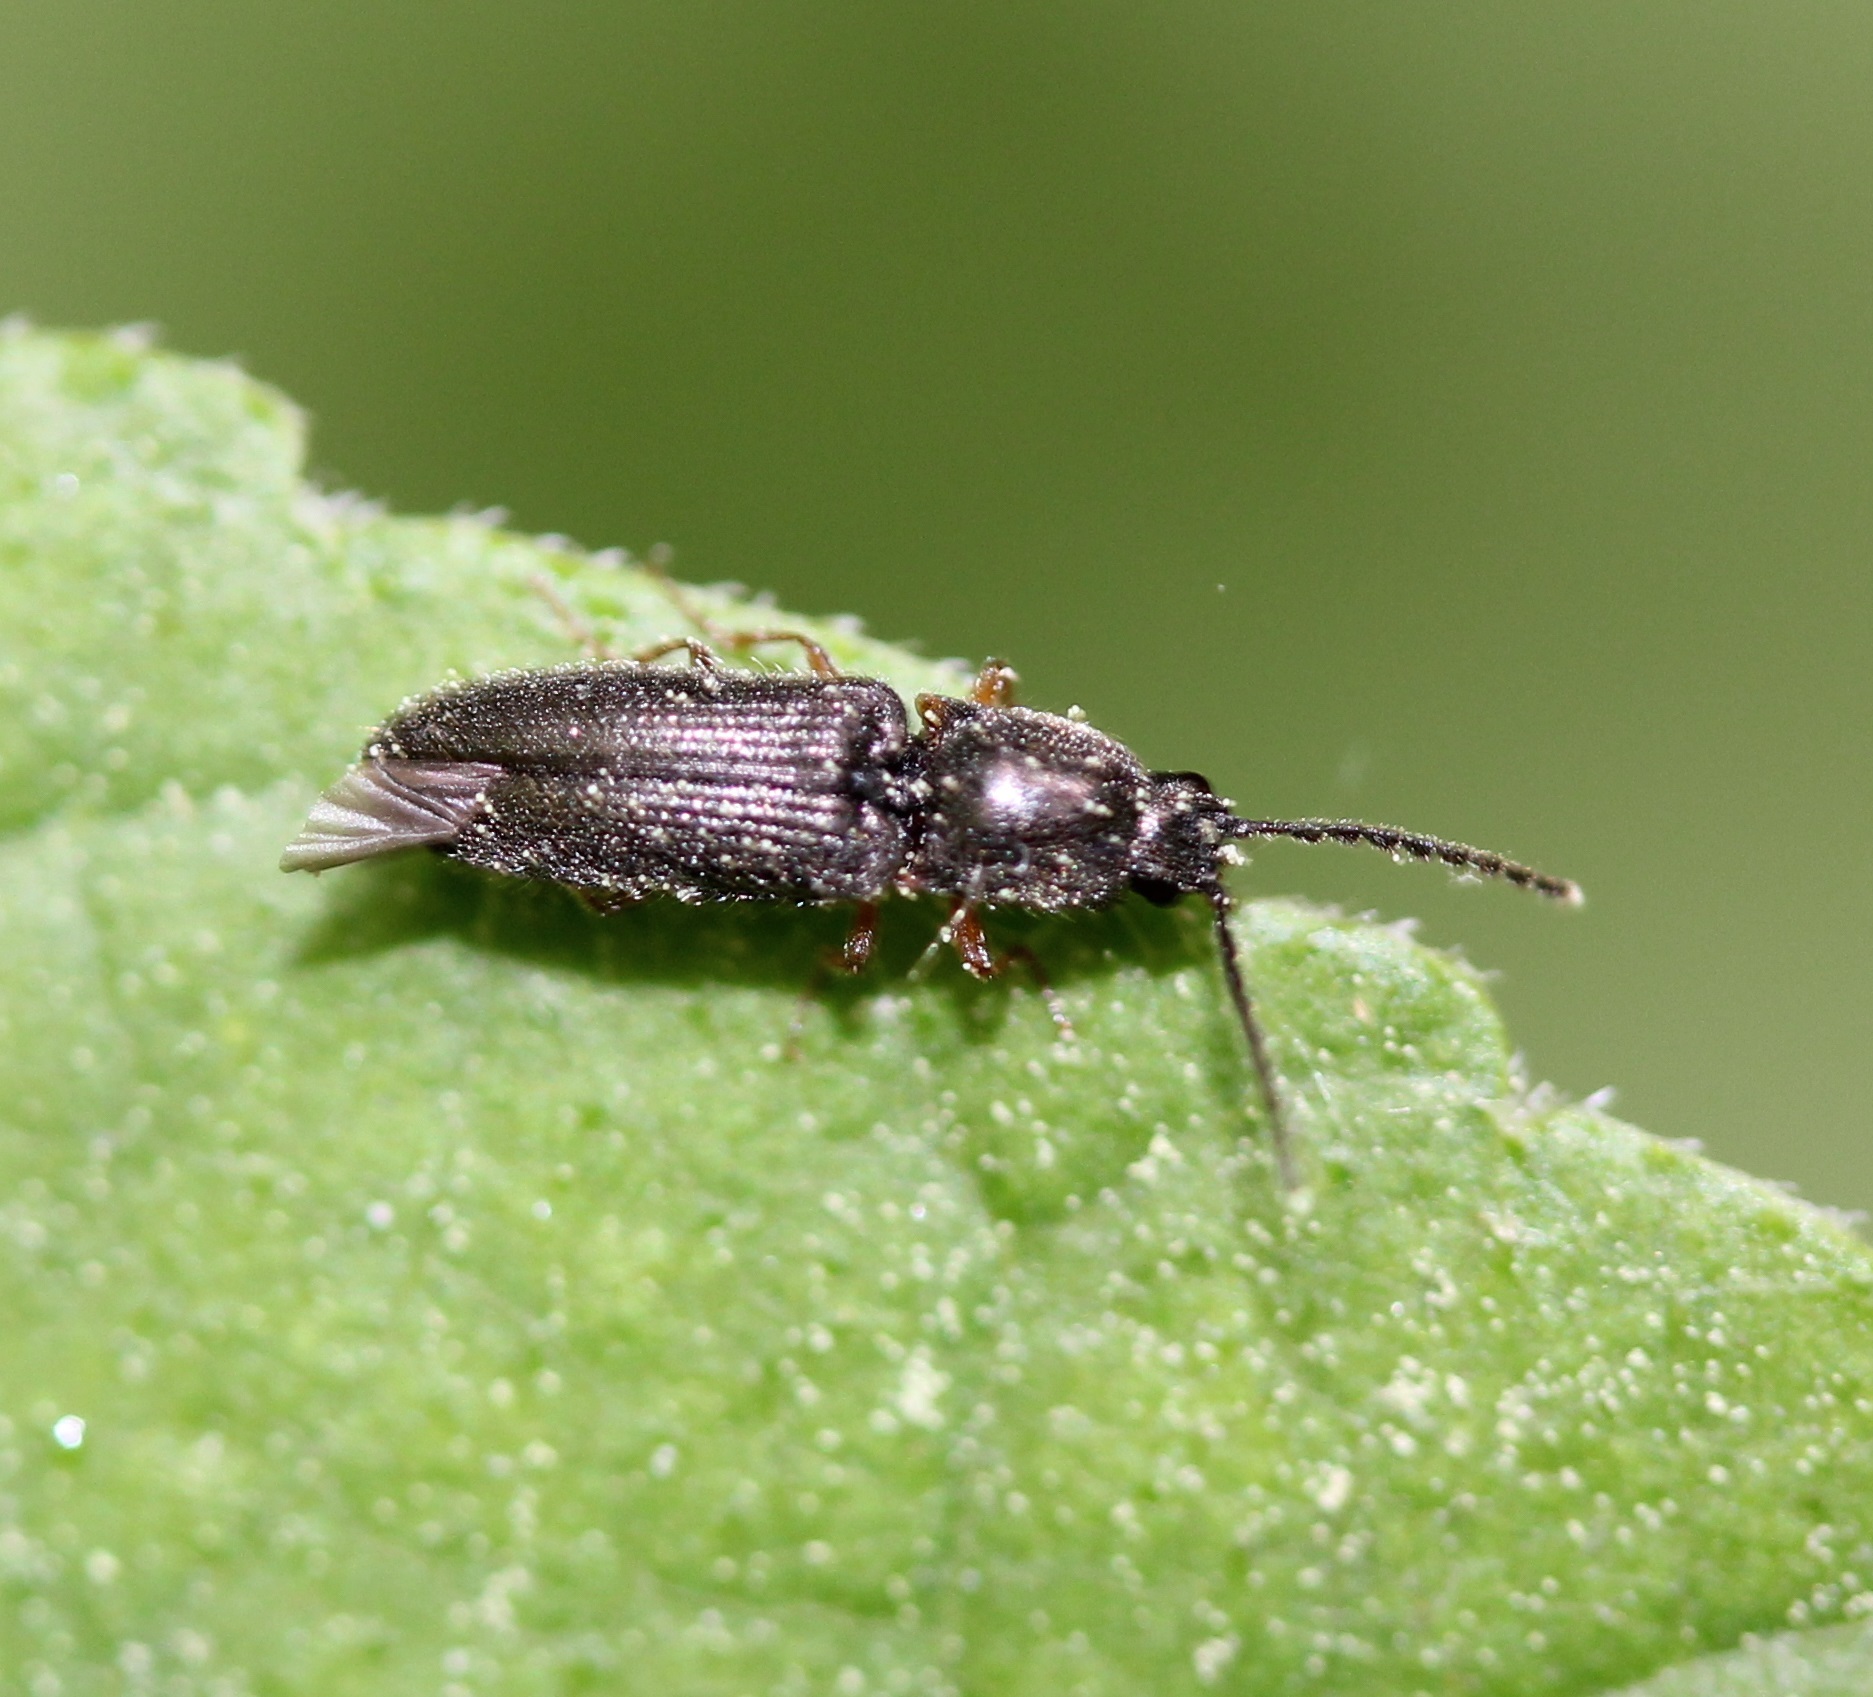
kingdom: Animalia
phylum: Arthropoda
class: Insecta
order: Coleoptera
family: Elateridae
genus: Limonius
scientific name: Limonius basilaris
